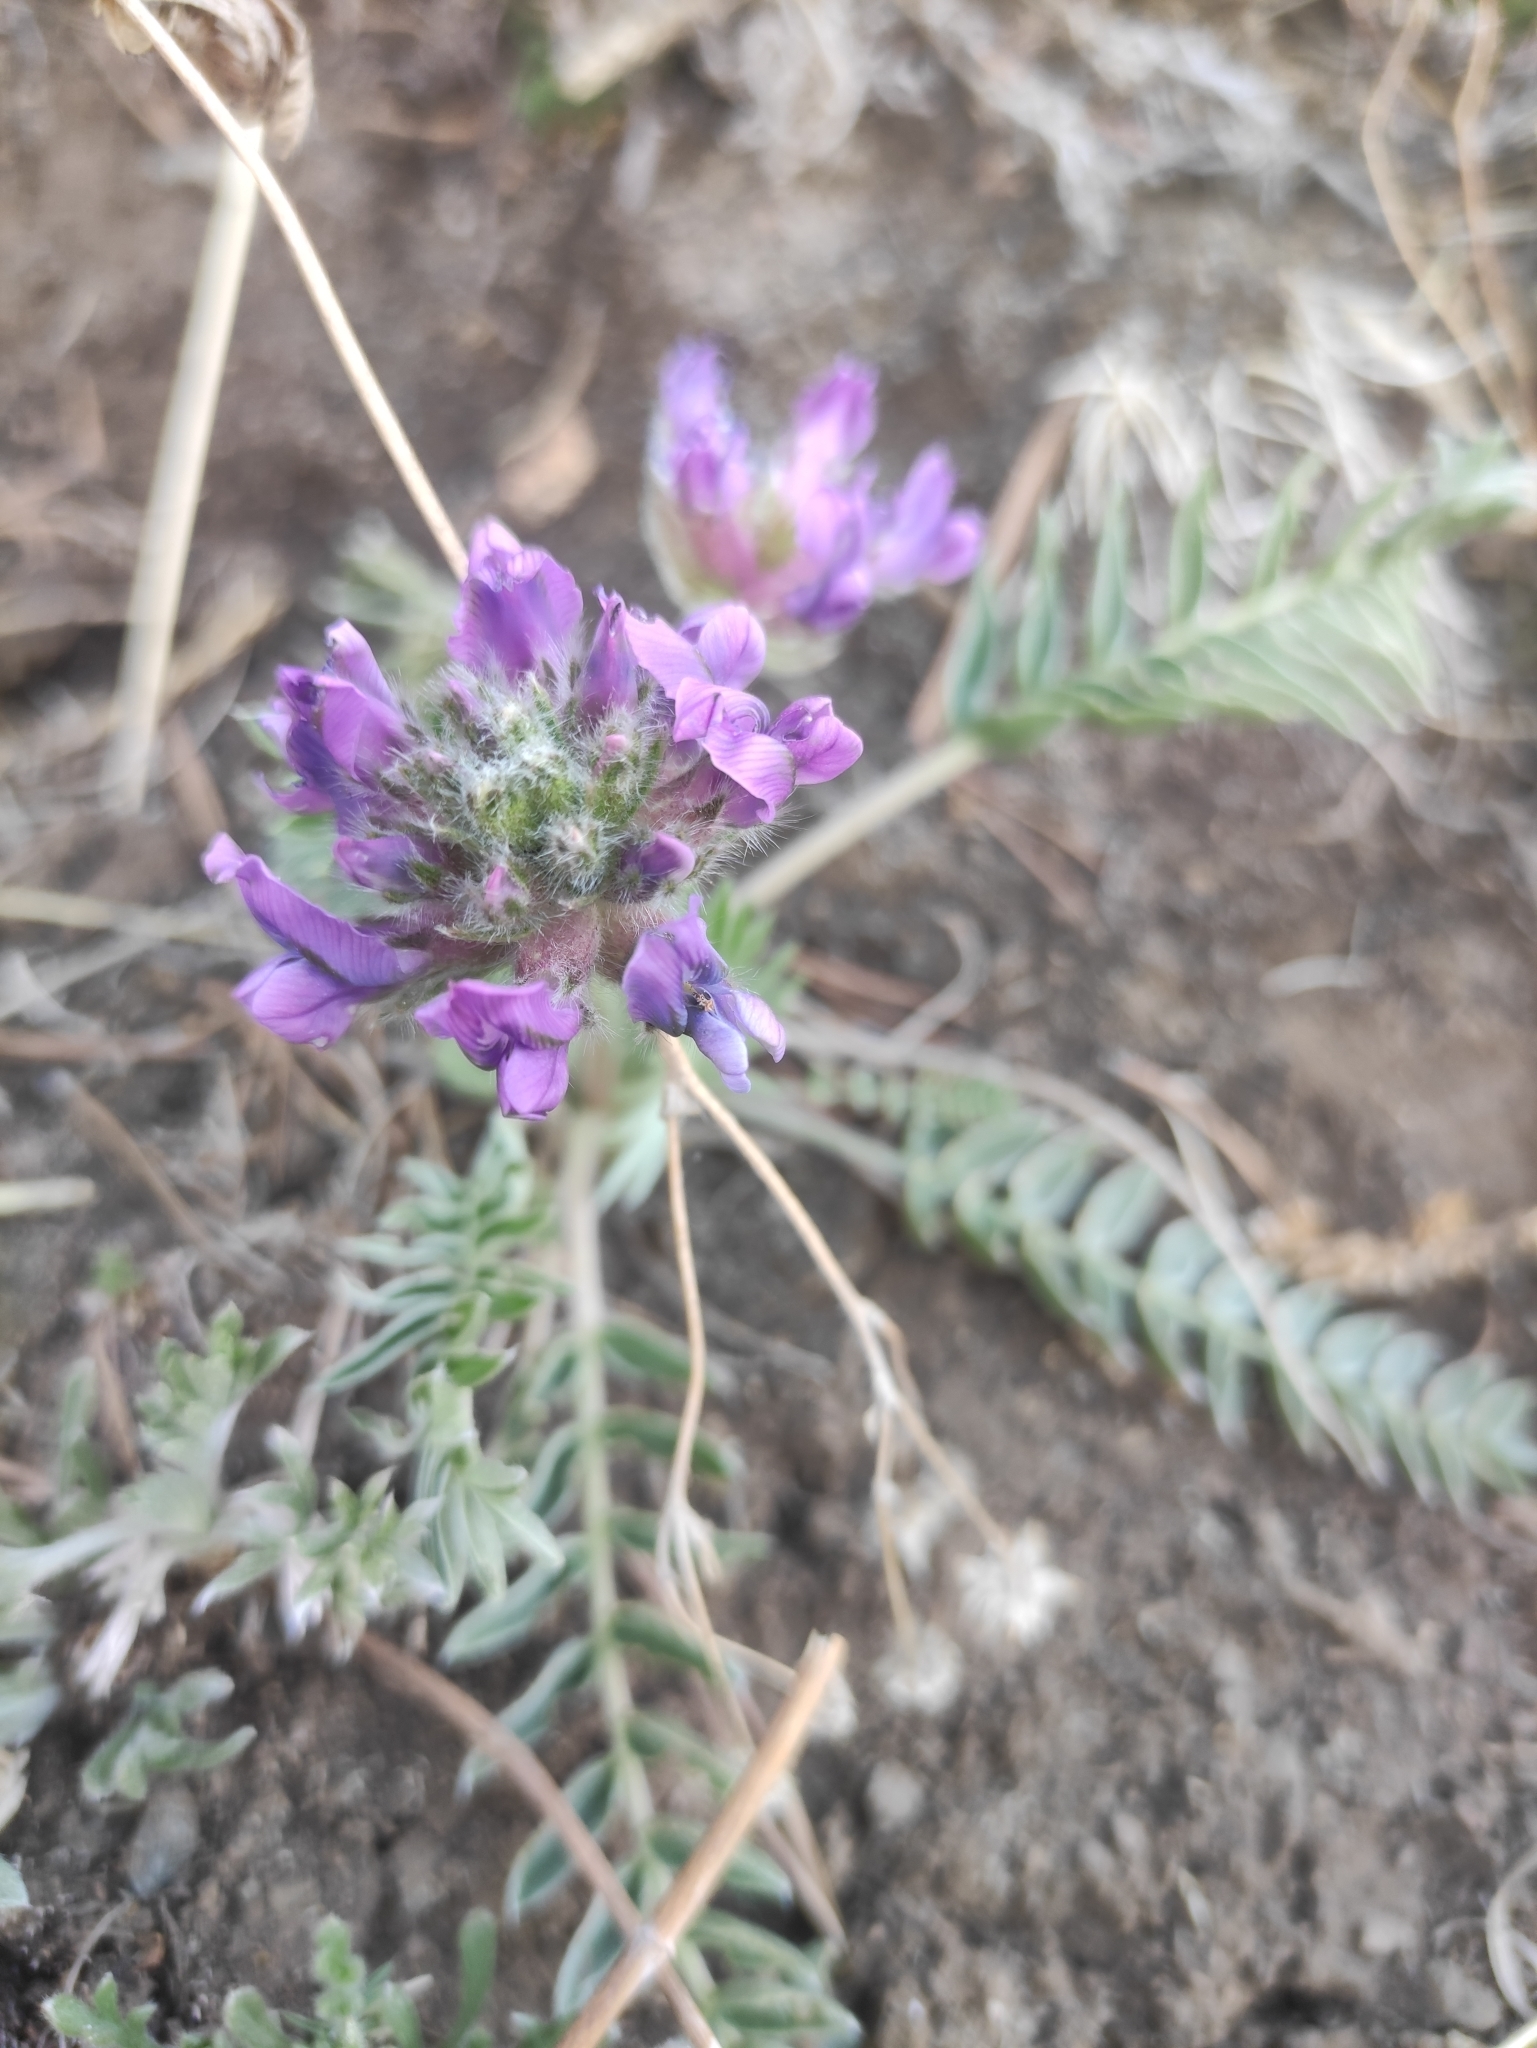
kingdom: Plantae
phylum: Tracheophyta
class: Magnoliopsida
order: Fabales
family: Fabaceae
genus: Oxytropis
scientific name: Oxytropis strobilacea
